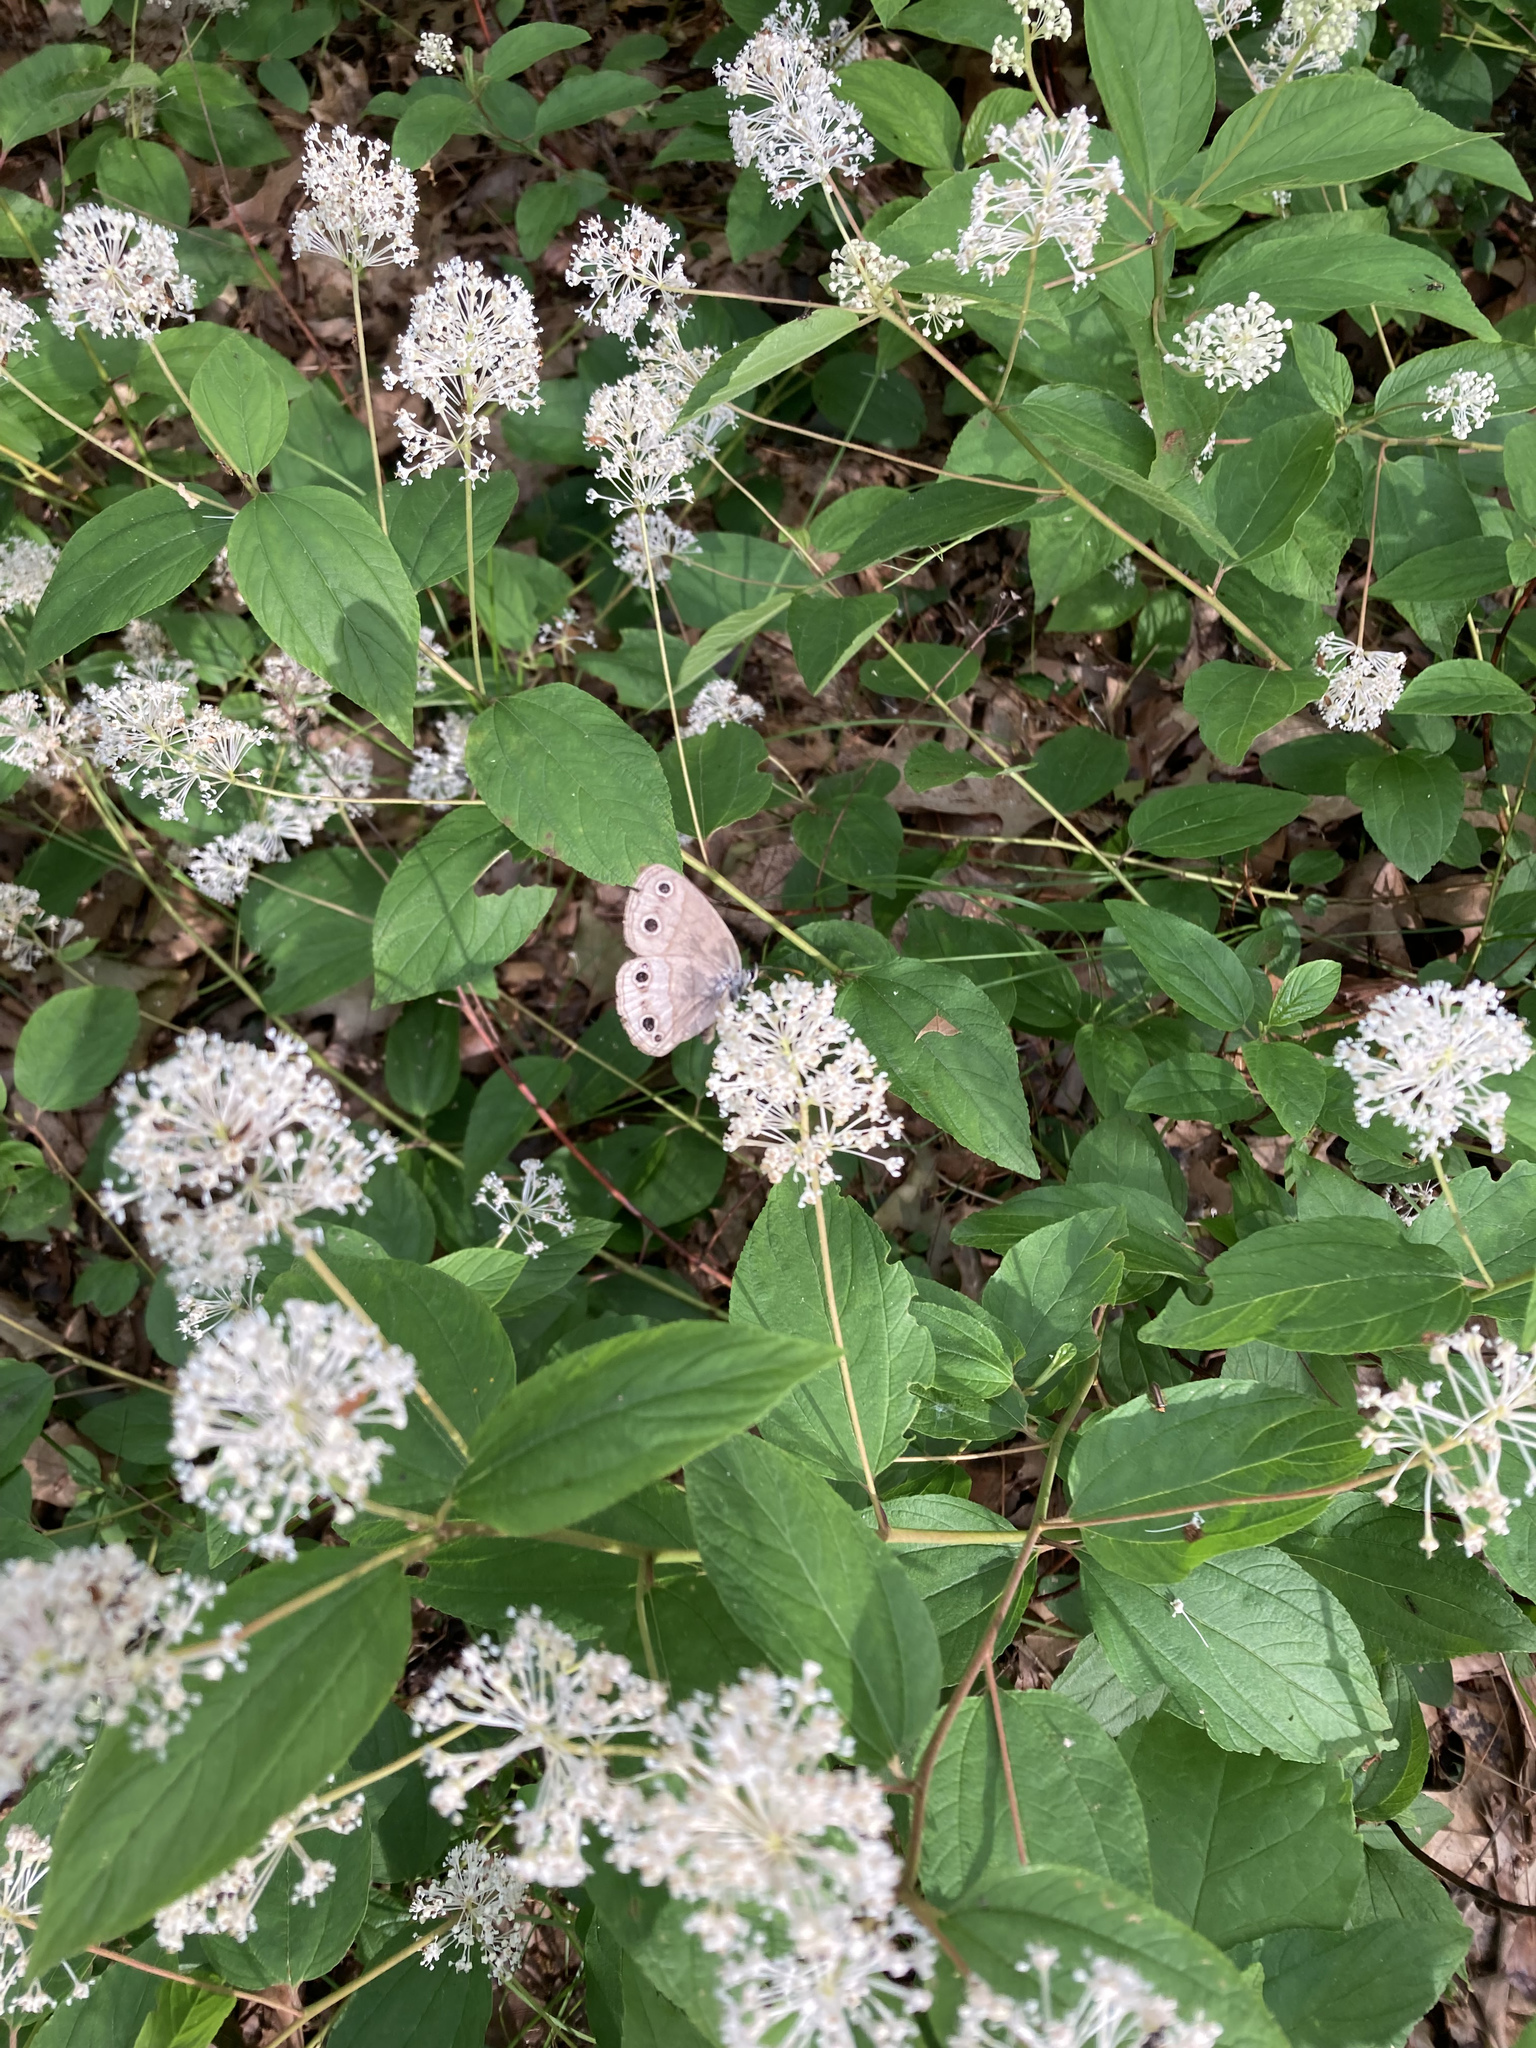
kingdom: Animalia
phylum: Arthropoda
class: Insecta
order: Lepidoptera
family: Nymphalidae
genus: Euptychia
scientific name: Euptychia cymela
